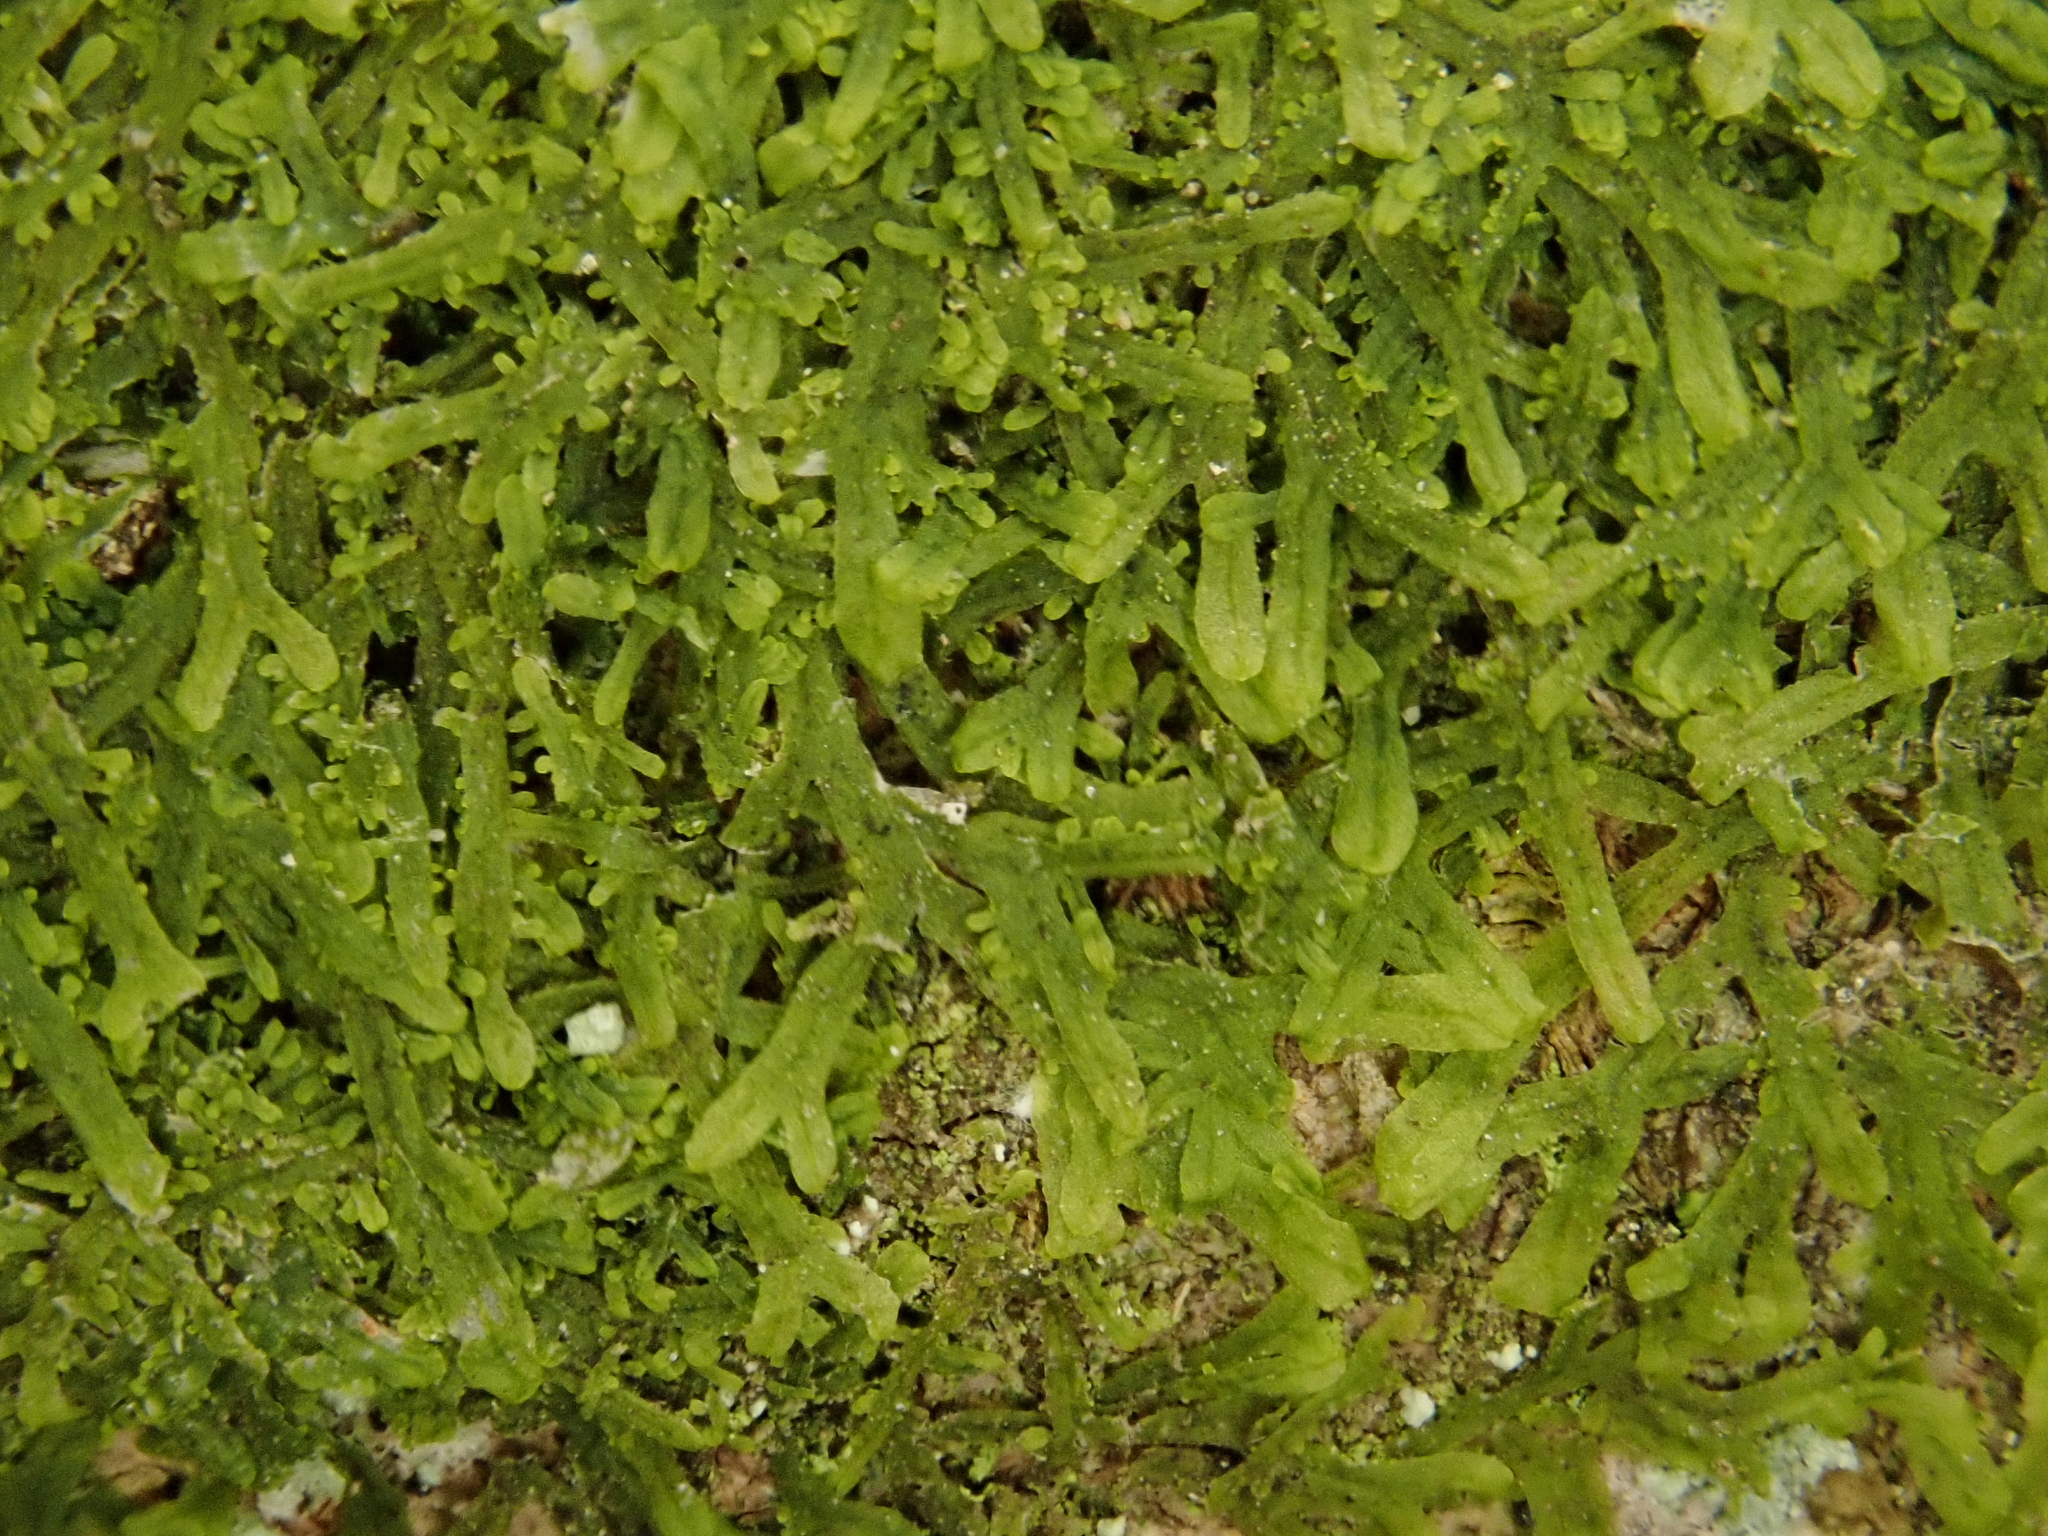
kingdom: Plantae
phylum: Marchantiophyta
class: Jungermanniopsida
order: Metzgeriales
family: Metzgeriaceae
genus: Metzgeria
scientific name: Metzgeria furcata
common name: Forked veilwort
